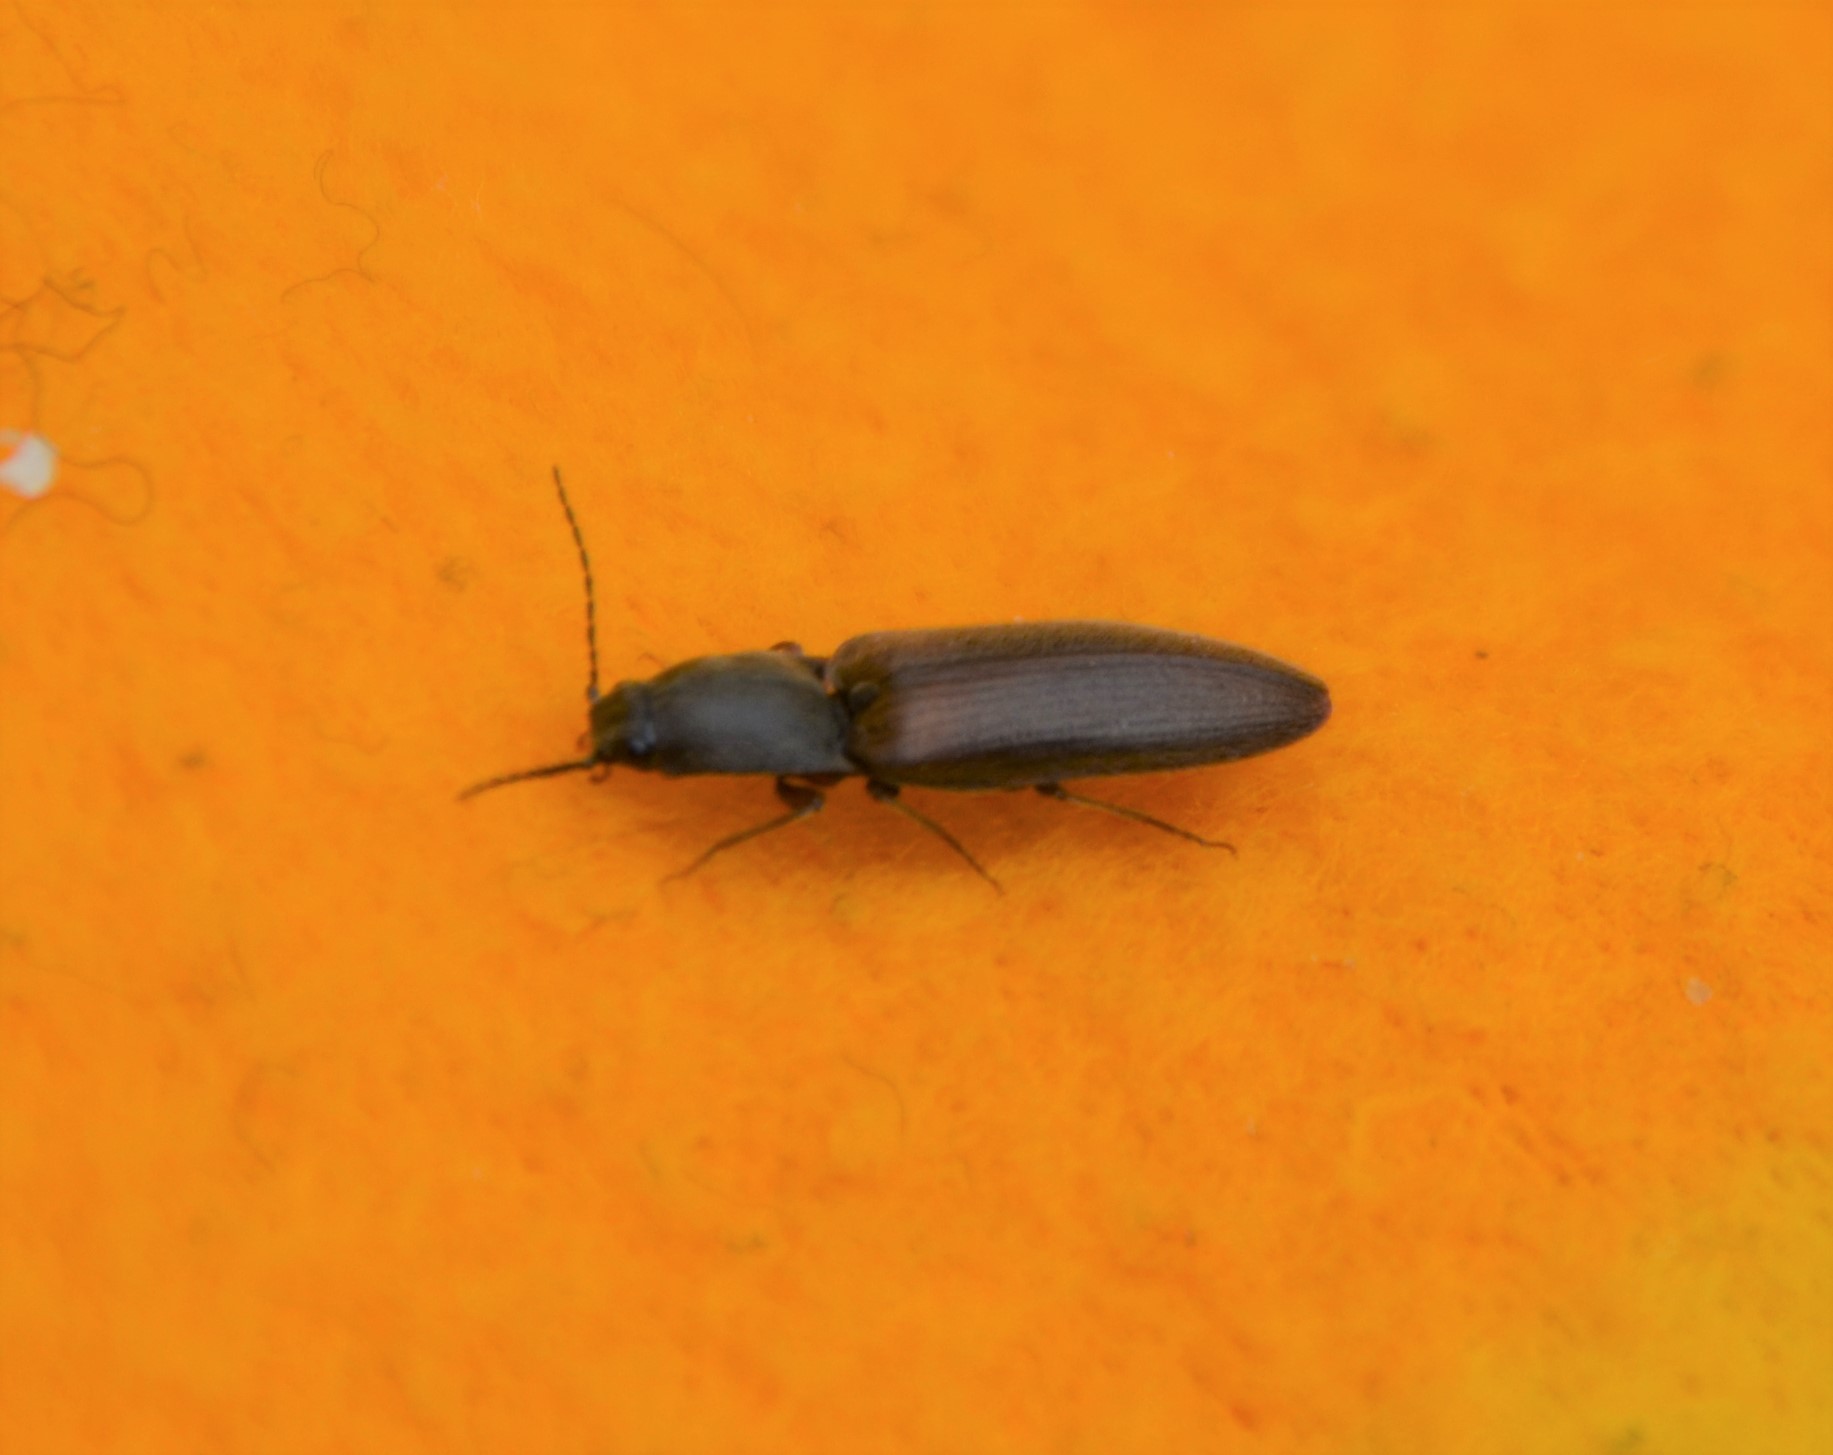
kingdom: Animalia
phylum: Arthropoda
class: Insecta
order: Coleoptera
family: Elateridae
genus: Athous
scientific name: Athous haemorrhoidalis
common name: Red-brown click beetle
